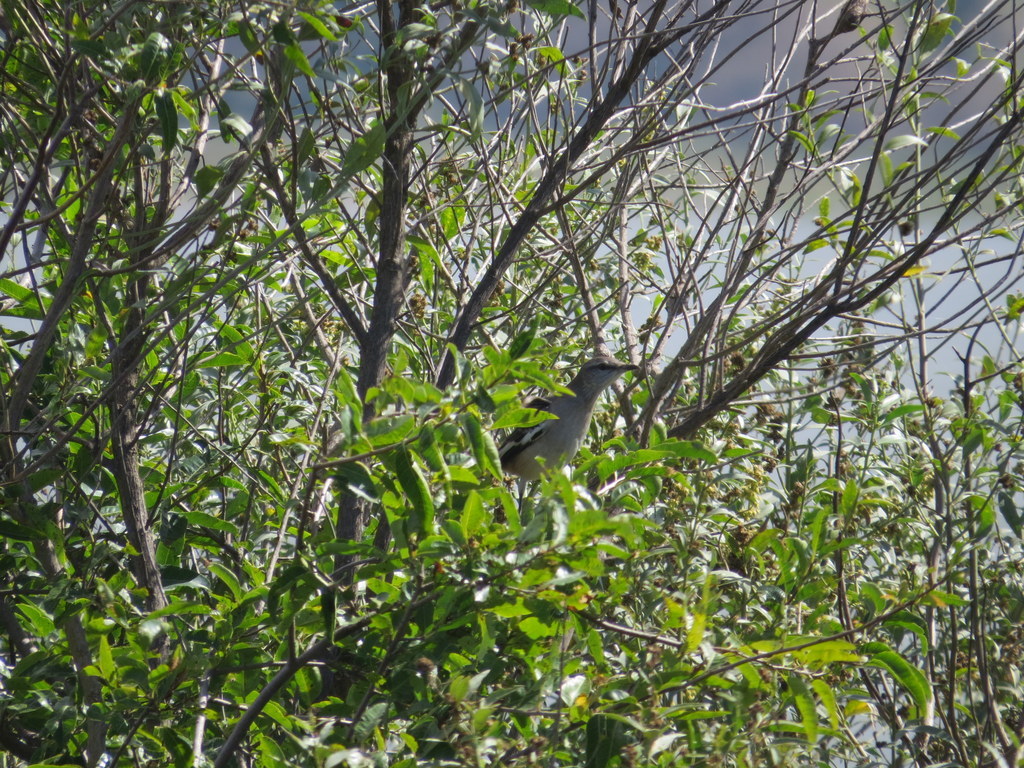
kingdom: Animalia
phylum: Chordata
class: Aves
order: Passeriformes
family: Mimidae
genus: Mimus
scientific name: Mimus triurus
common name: White-banded mockingbird
